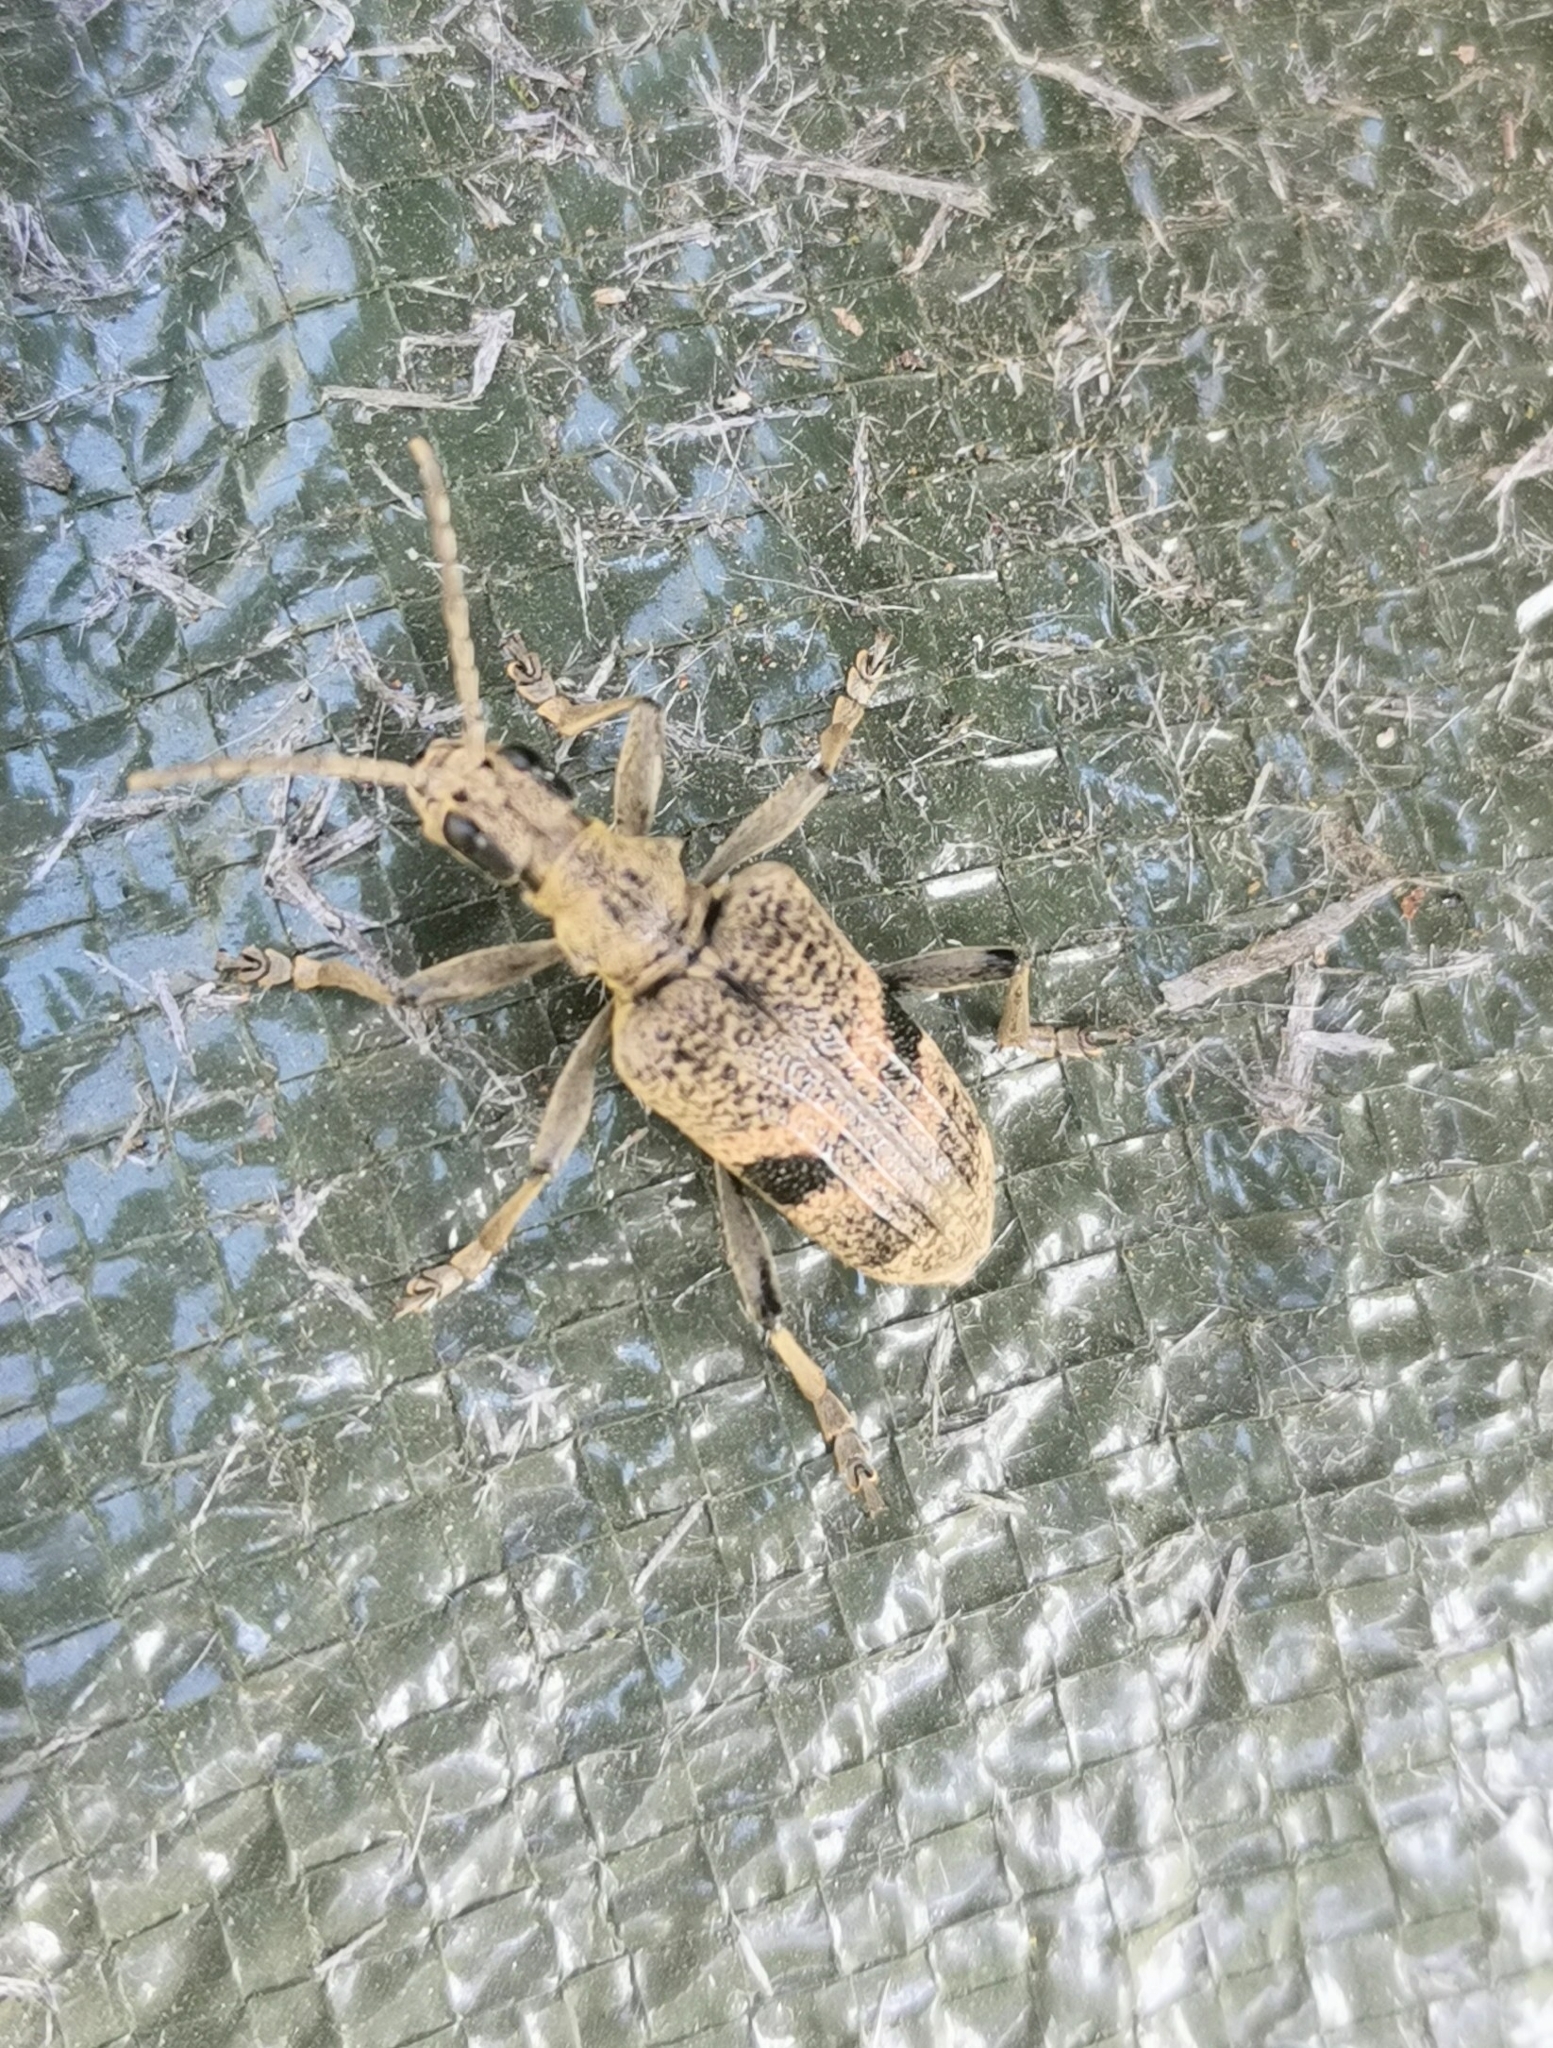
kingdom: Animalia
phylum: Arthropoda
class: Insecta
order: Coleoptera
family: Cerambycidae
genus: Rhagium
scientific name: Rhagium mordax
